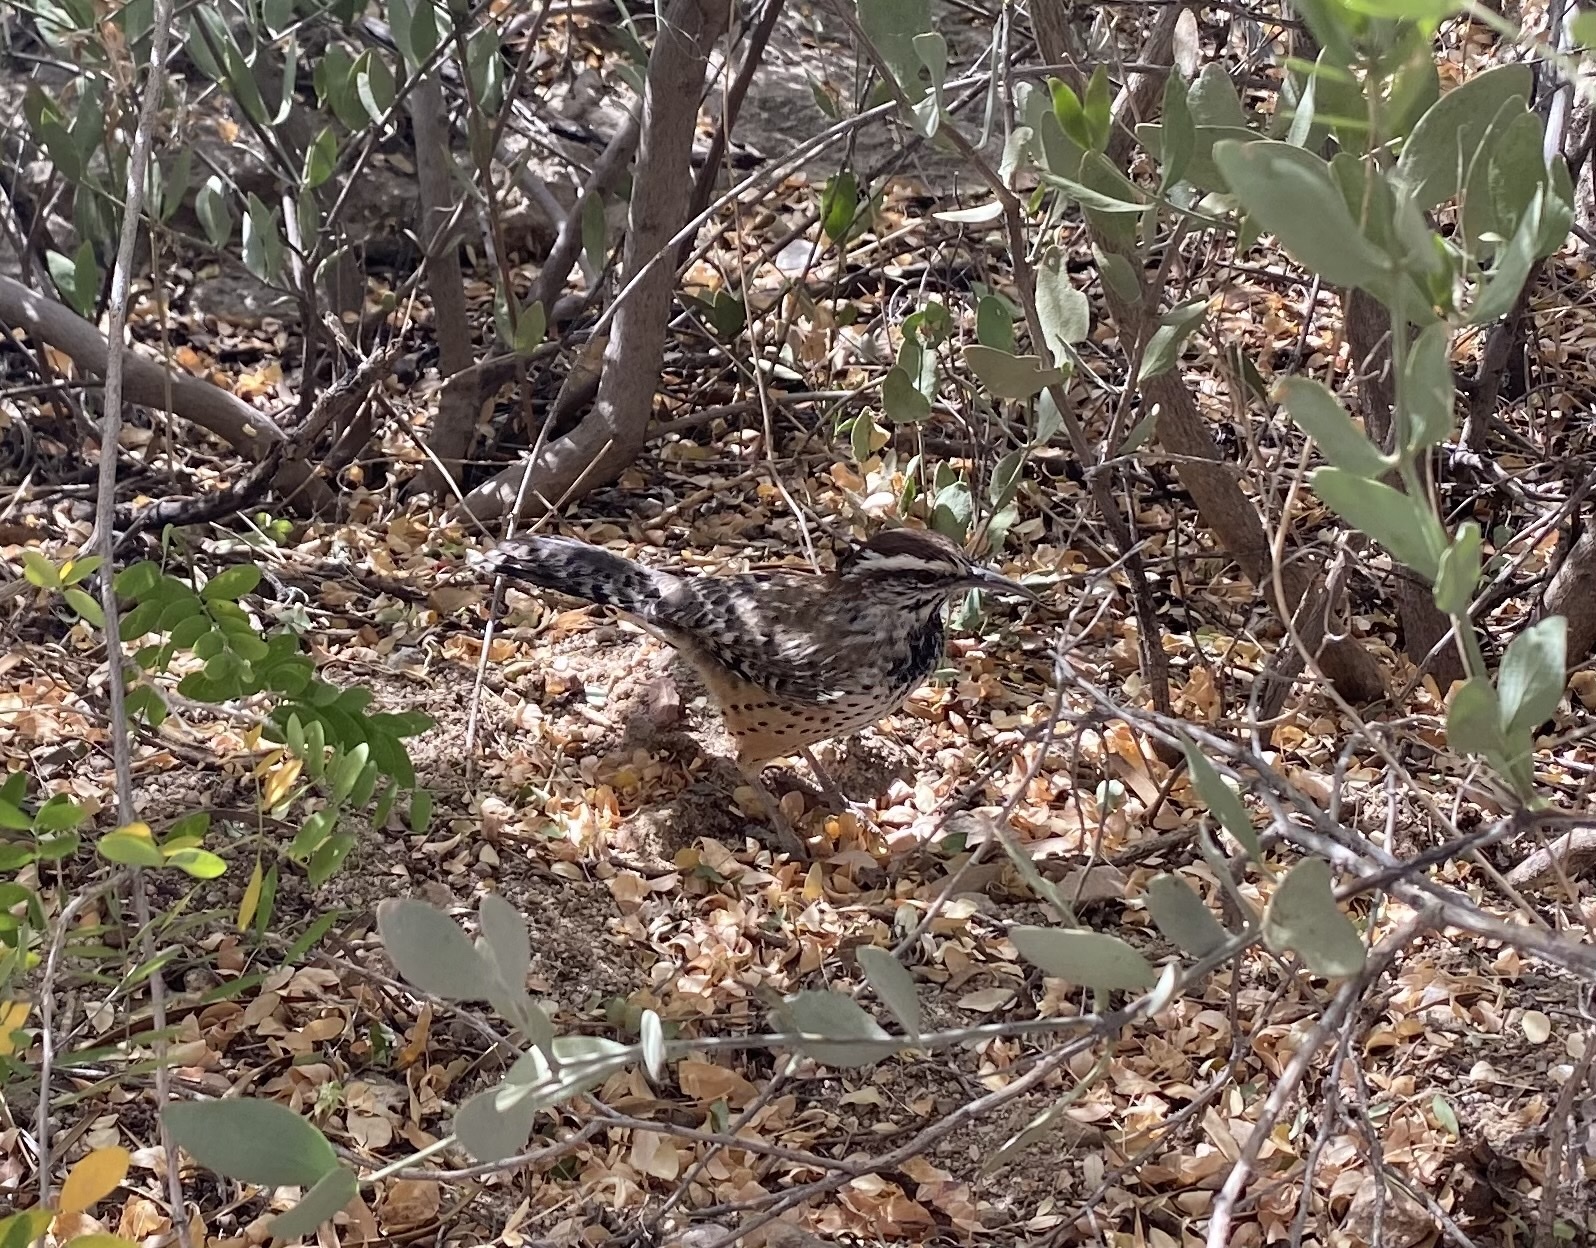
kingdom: Animalia
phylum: Chordata
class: Aves
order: Passeriformes
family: Troglodytidae
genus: Campylorhynchus
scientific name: Campylorhynchus brunneicapillus
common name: Cactus wren
